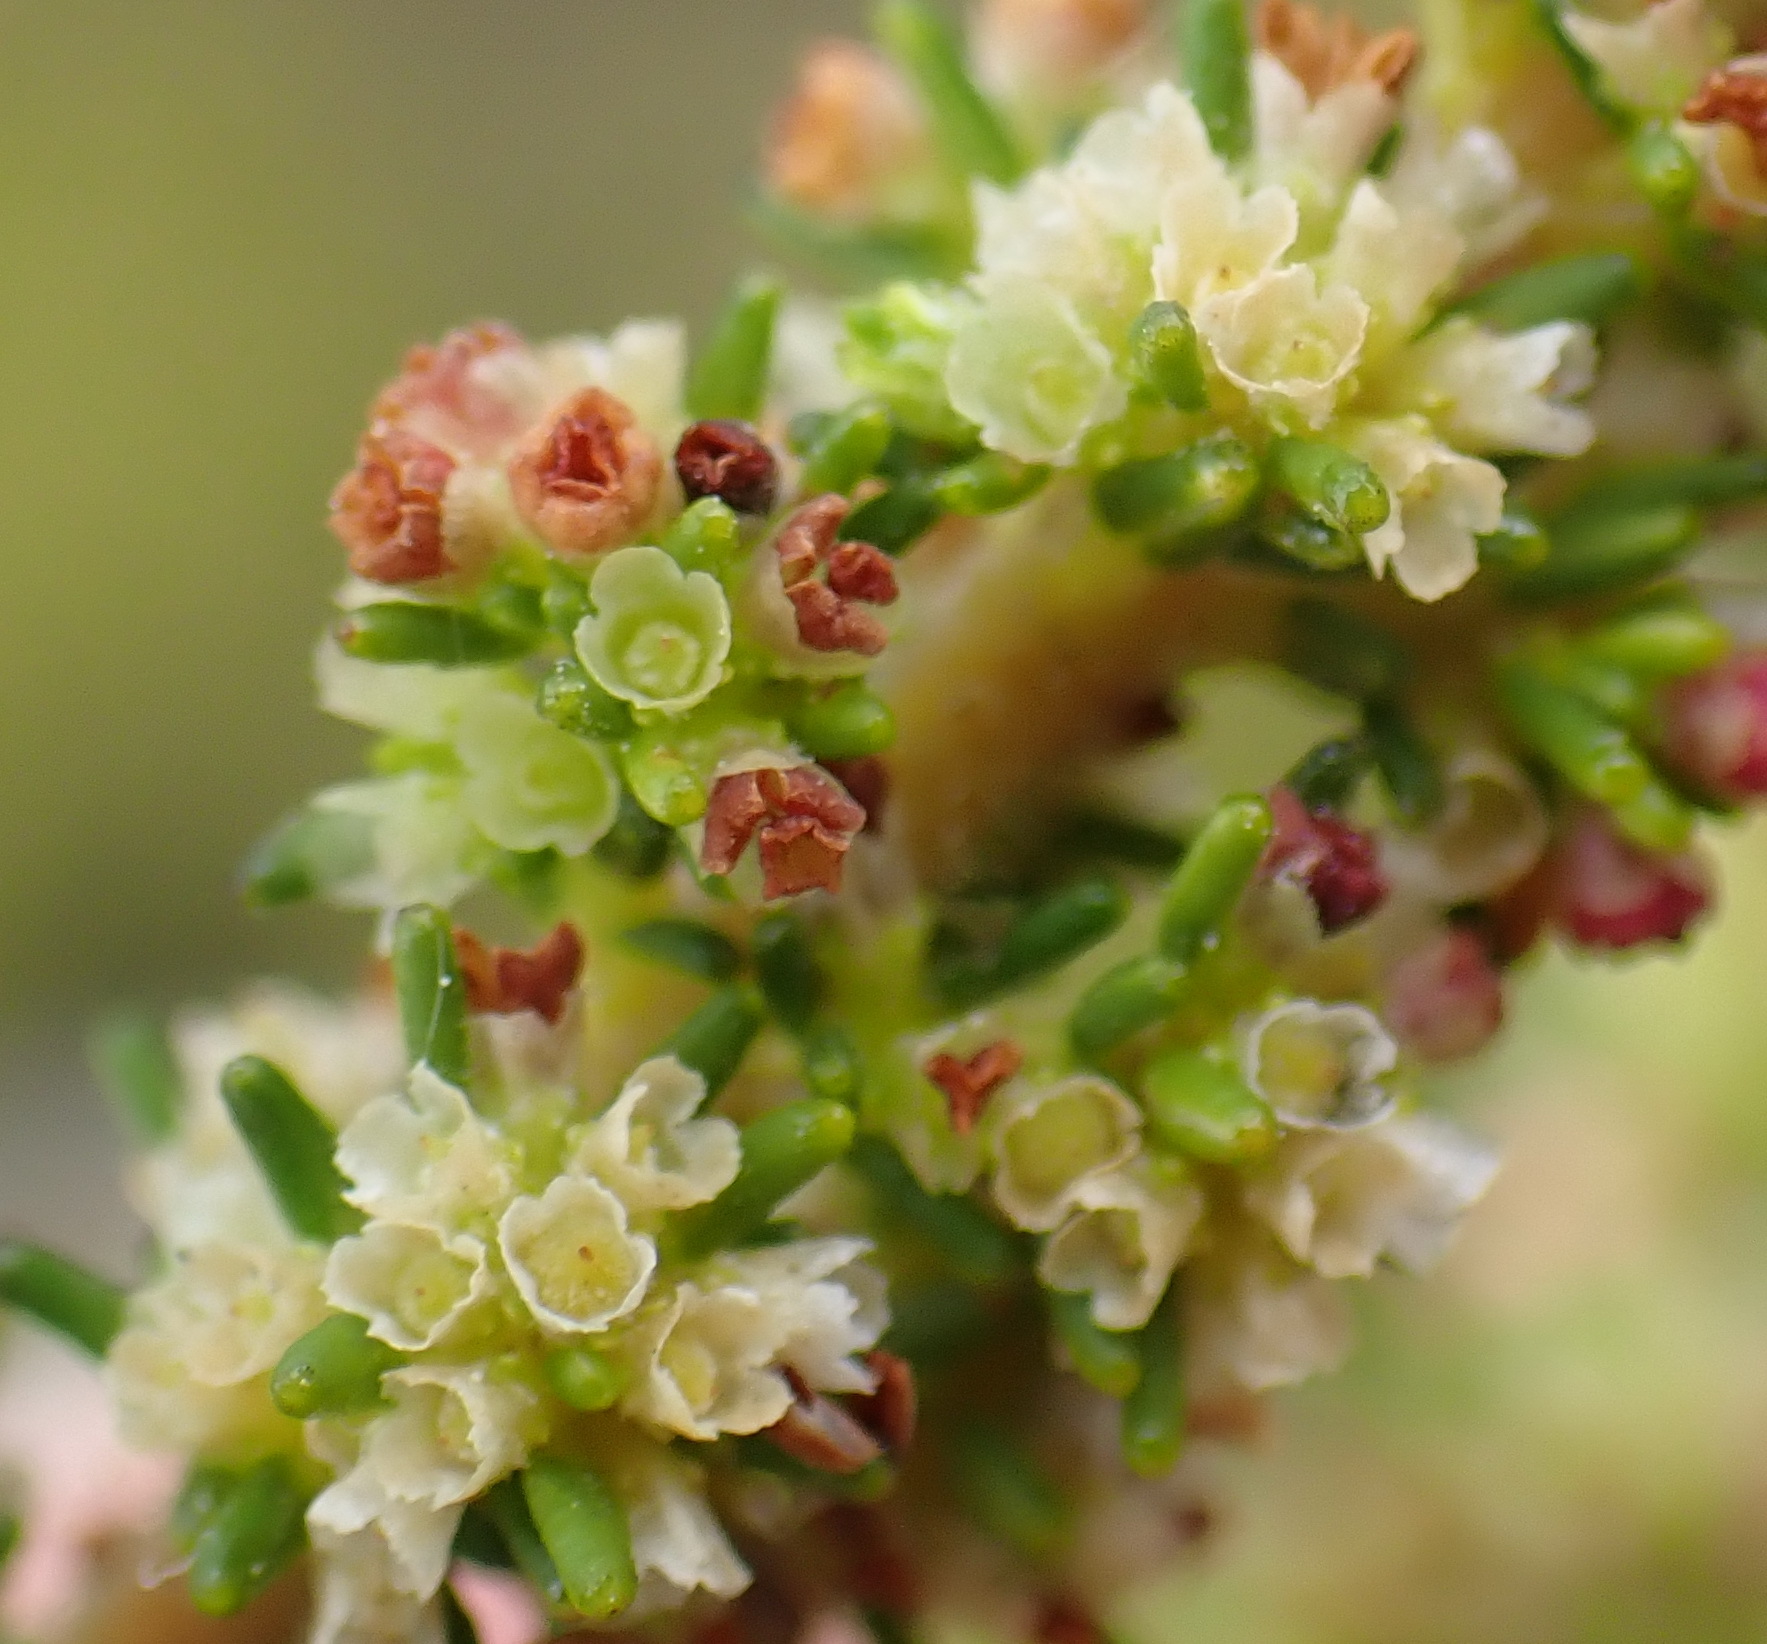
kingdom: Plantae
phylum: Tracheophyta
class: Magnoliopsida
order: Ericales
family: Ericaceae
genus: Erica
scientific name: Erica muscosa
